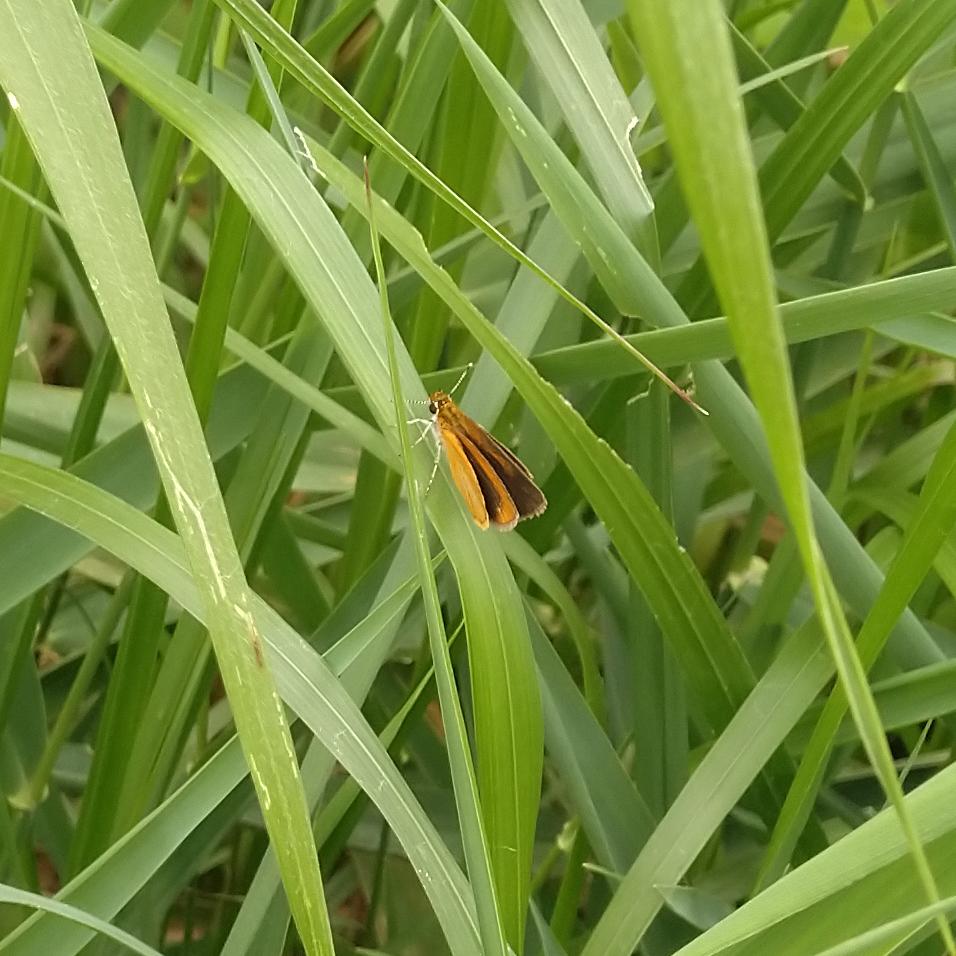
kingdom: Animalia
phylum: Arthropoda
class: Insecta
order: Lepidoptera
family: Hesperiidae
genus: Ancyloxypha
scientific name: Ancyloxypha numitor
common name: Least skipper
